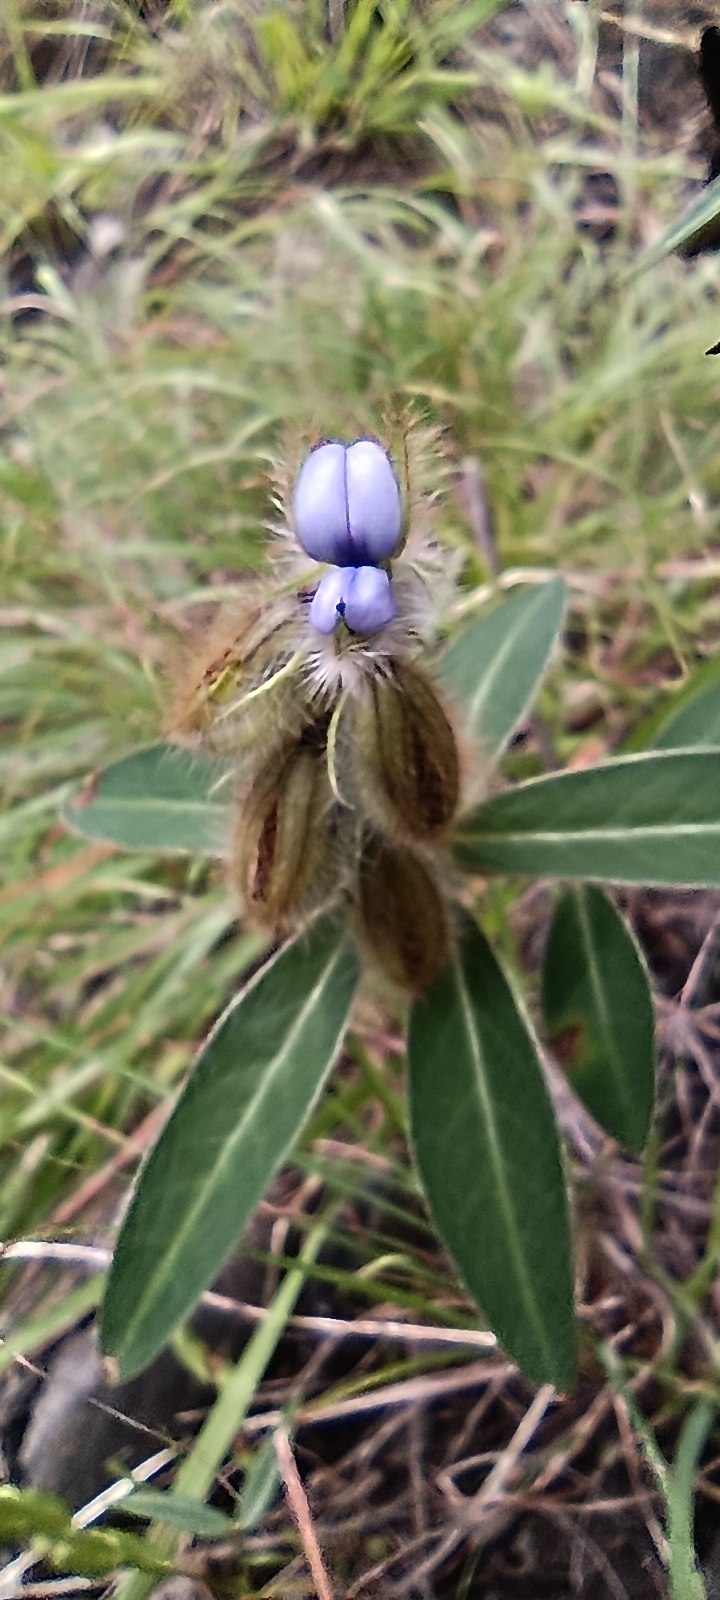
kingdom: Plantae
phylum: Tracheophyta
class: Magnoliopsida
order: Fabales
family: Fabaceae
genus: Crotalaria
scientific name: Crotalaria sessiliflora
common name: Rattlebox
